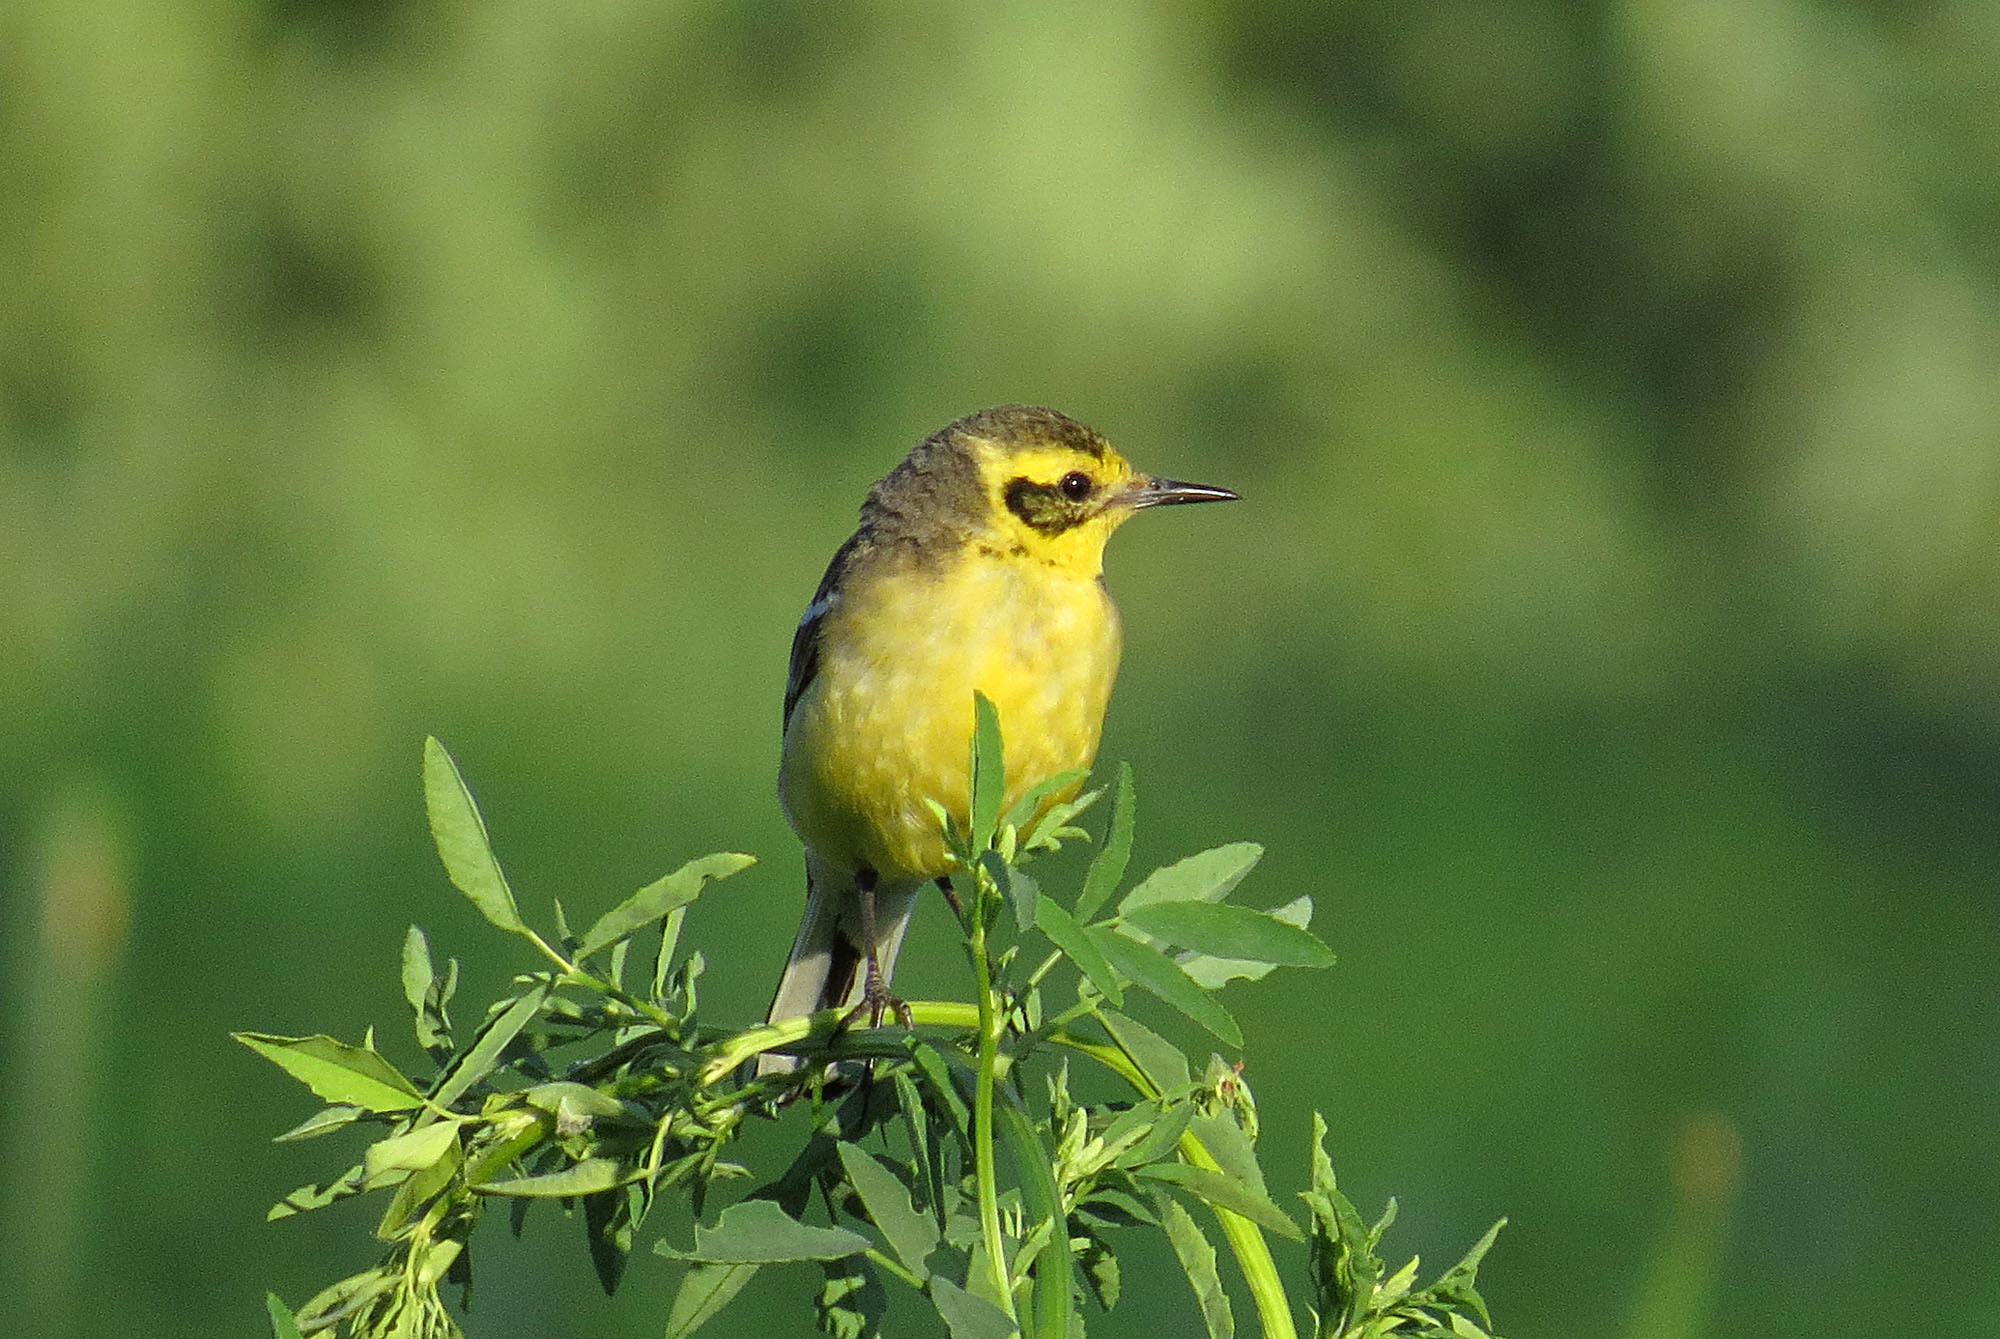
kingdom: Animalia
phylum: Chordata
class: Aves
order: Passeriformes
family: Motacillidae
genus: Motacilla
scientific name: Motacilla citreola
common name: Citrine wagtail
